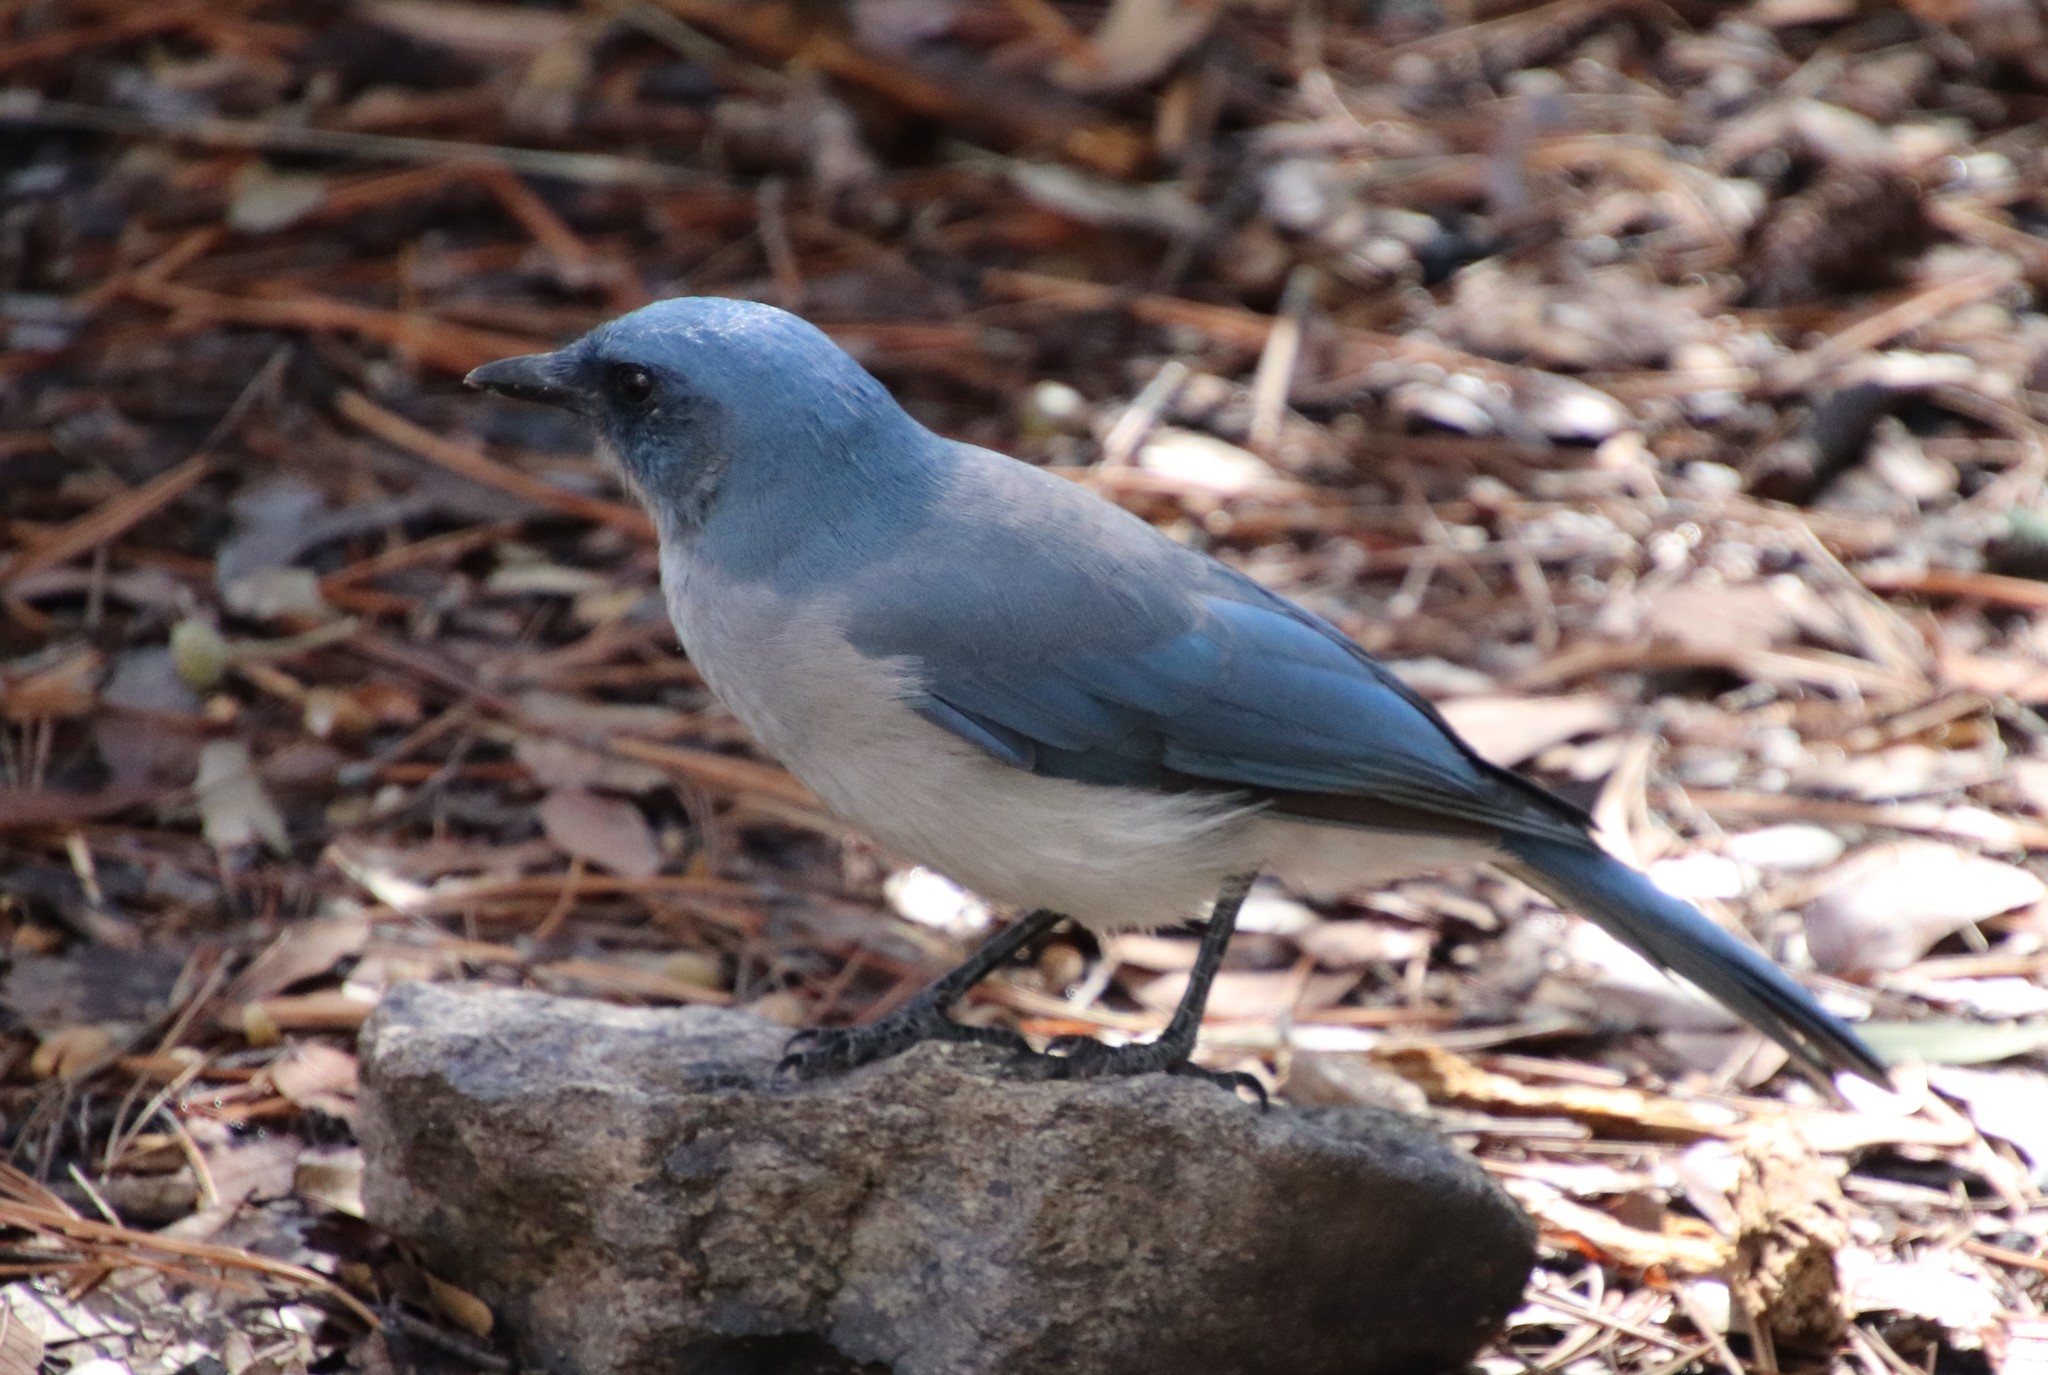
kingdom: Animalia
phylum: Chordata
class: Aves
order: Passeriformes
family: Corvidae
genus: Aphelocoma
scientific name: Aphelocoma wollweberi
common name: Mexican jay
